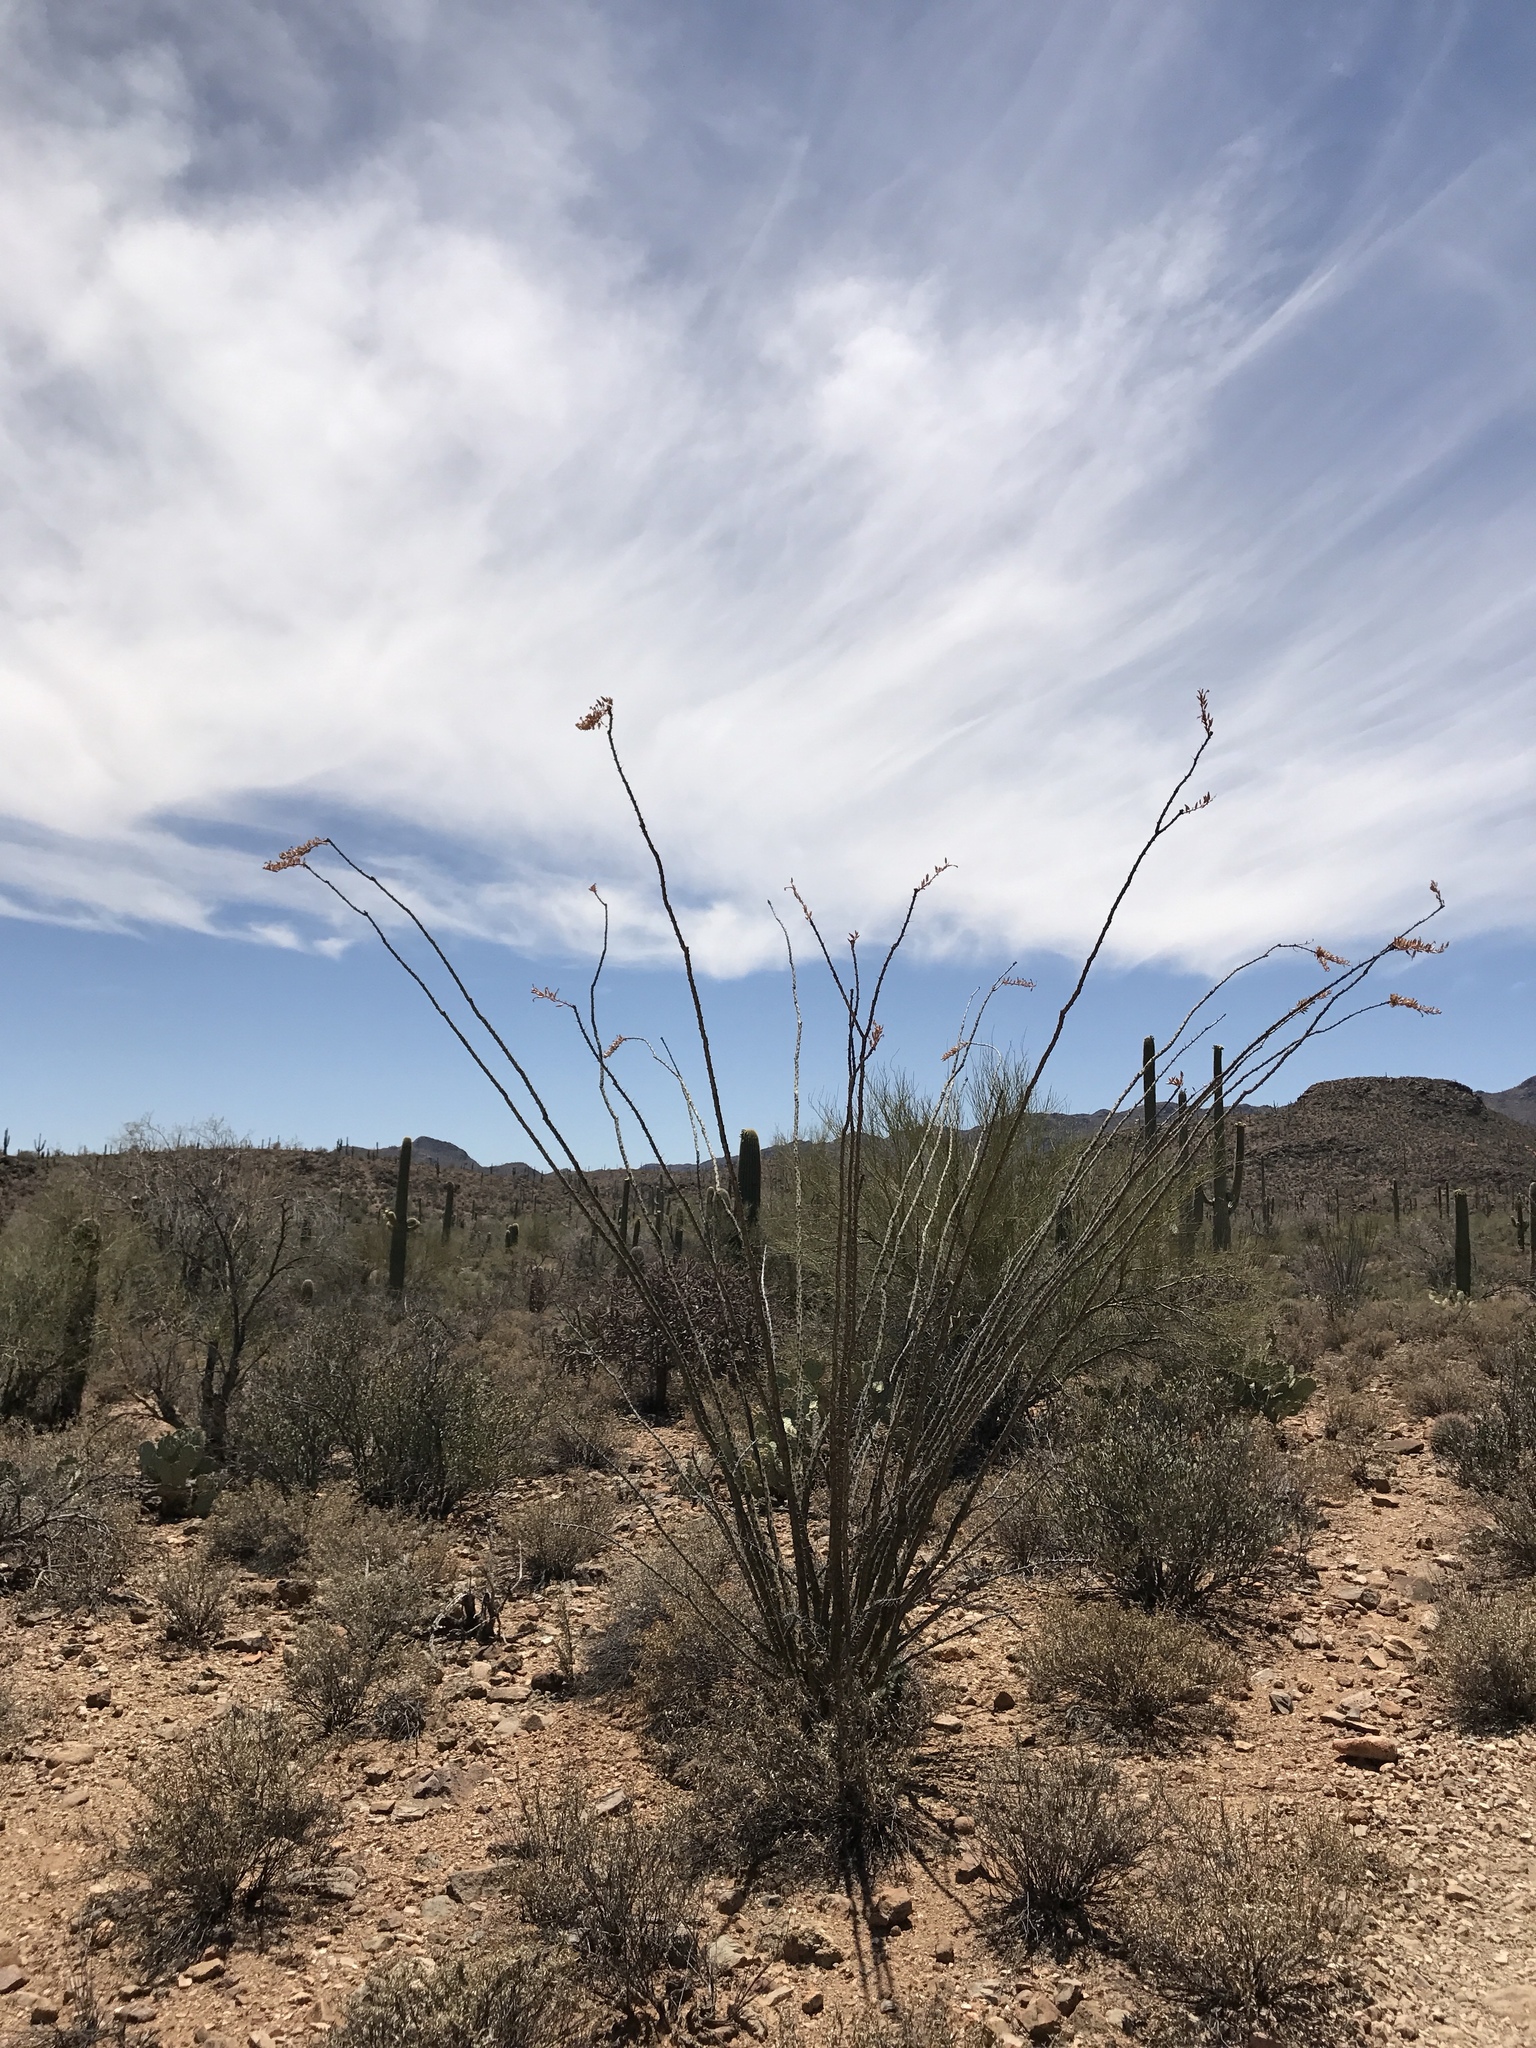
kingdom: Plantae
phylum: Tracheophyta
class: Magnoliopsida
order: Ericales
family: Fouquieriaceae
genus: Fouquieria
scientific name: Fouquieria splendens
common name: Vine-cactus
